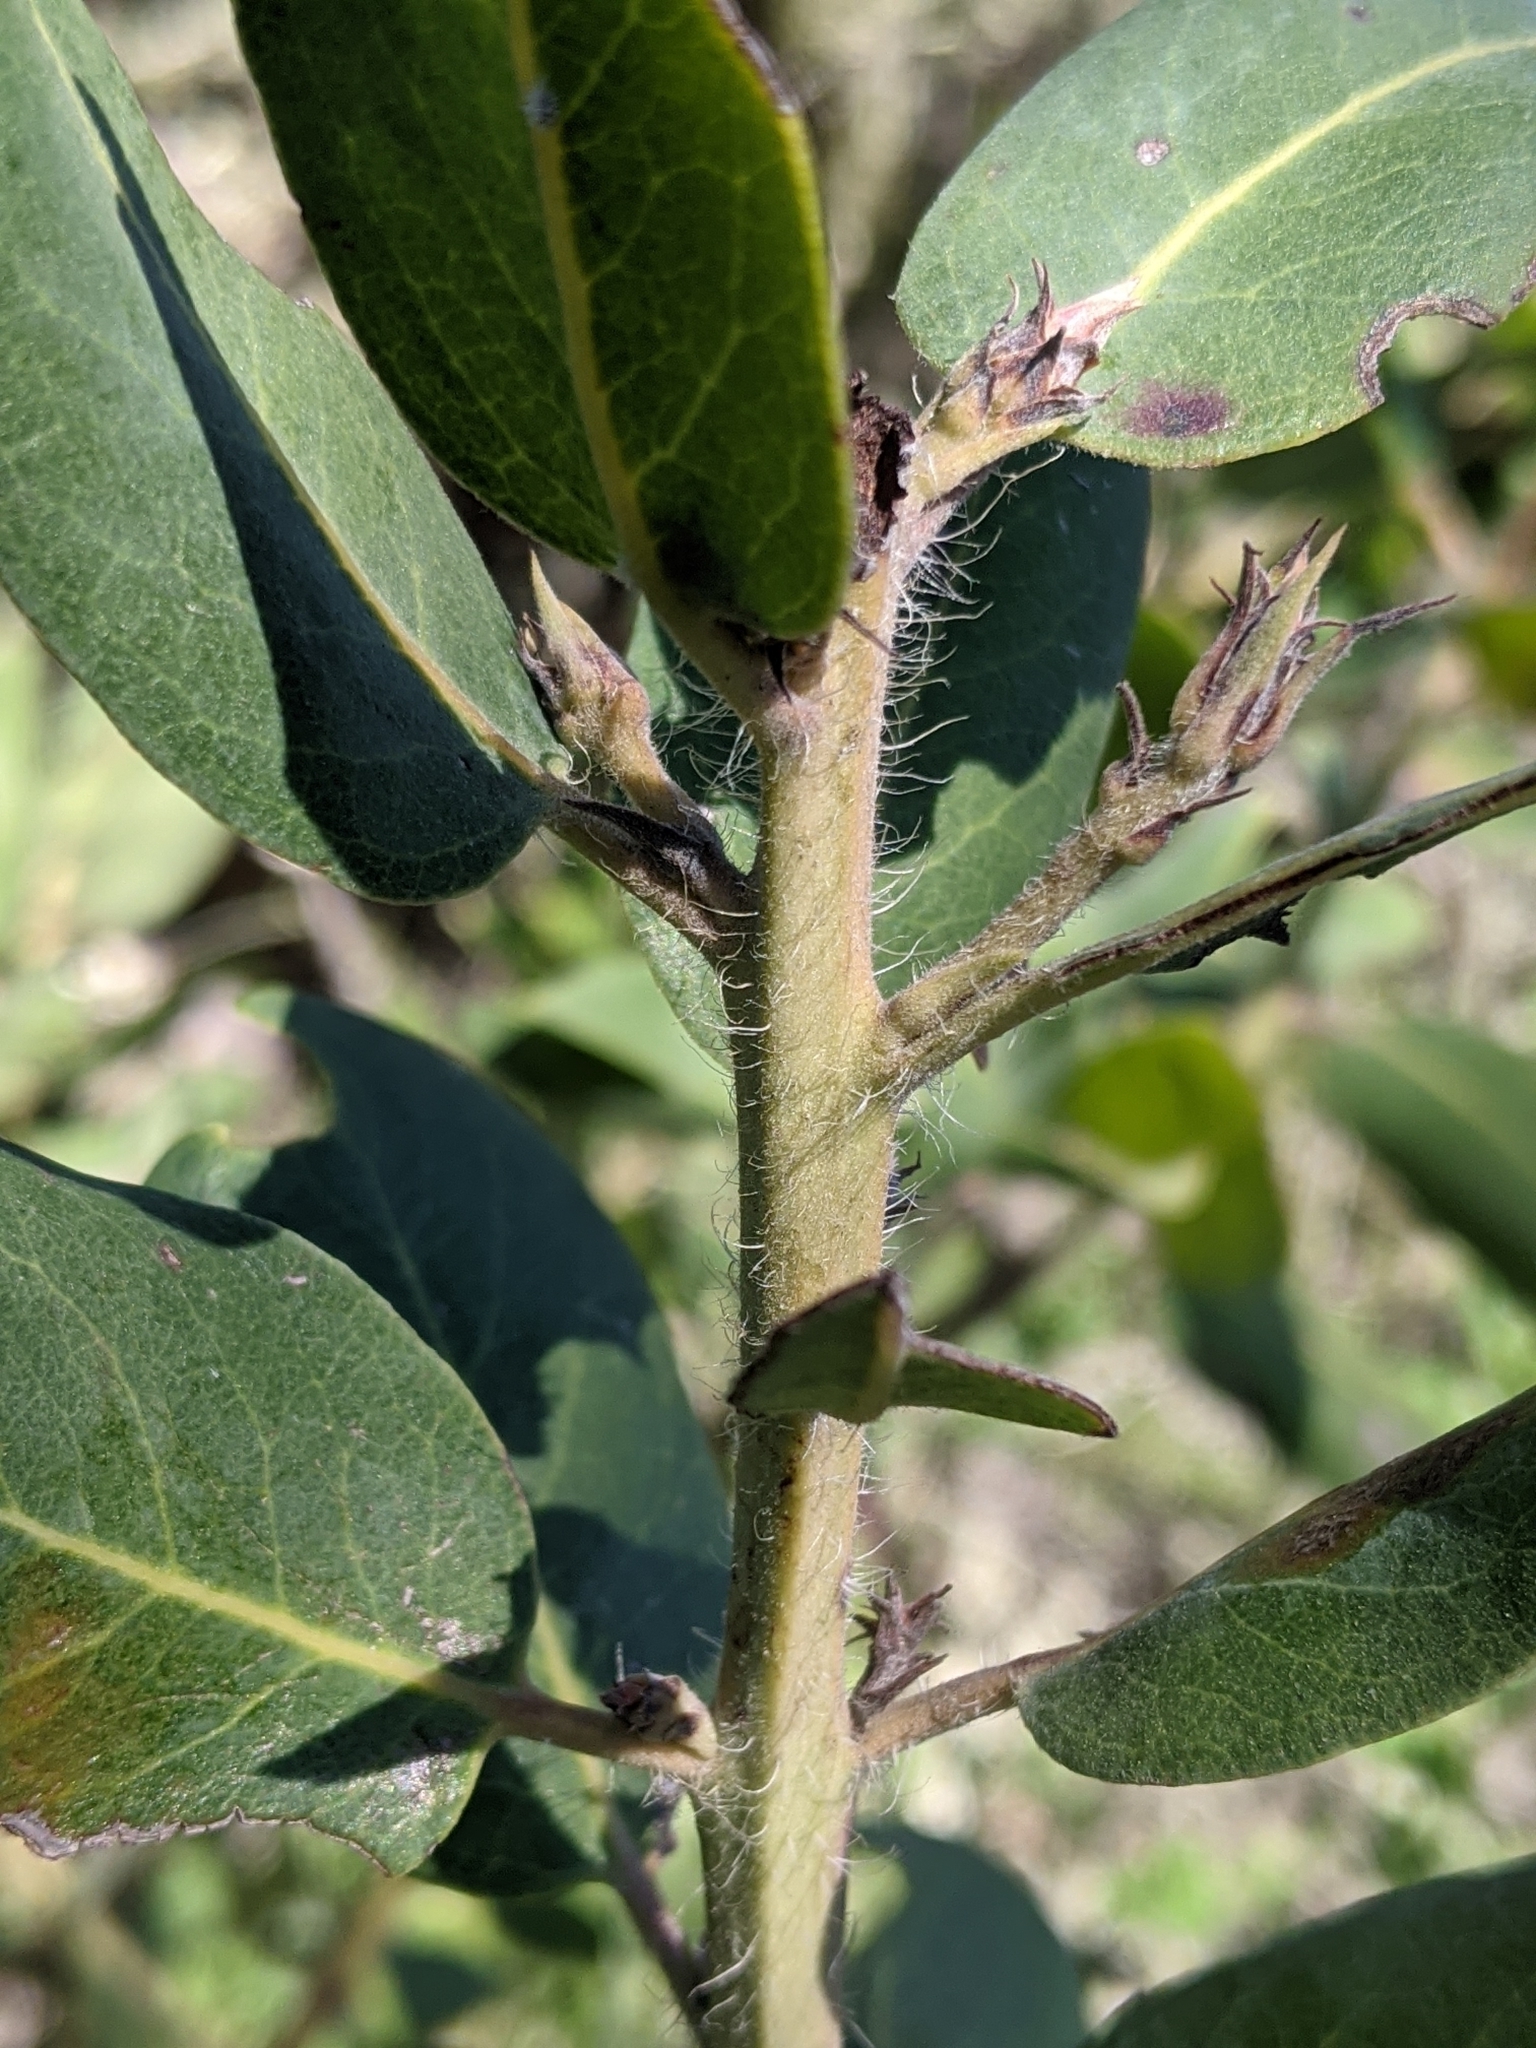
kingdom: Plantae
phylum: Tracheophyta
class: Magnoliopsida
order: Ericales
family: Ericaceae
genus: Arctostaphylos
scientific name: Arctostaphylos crustacea
